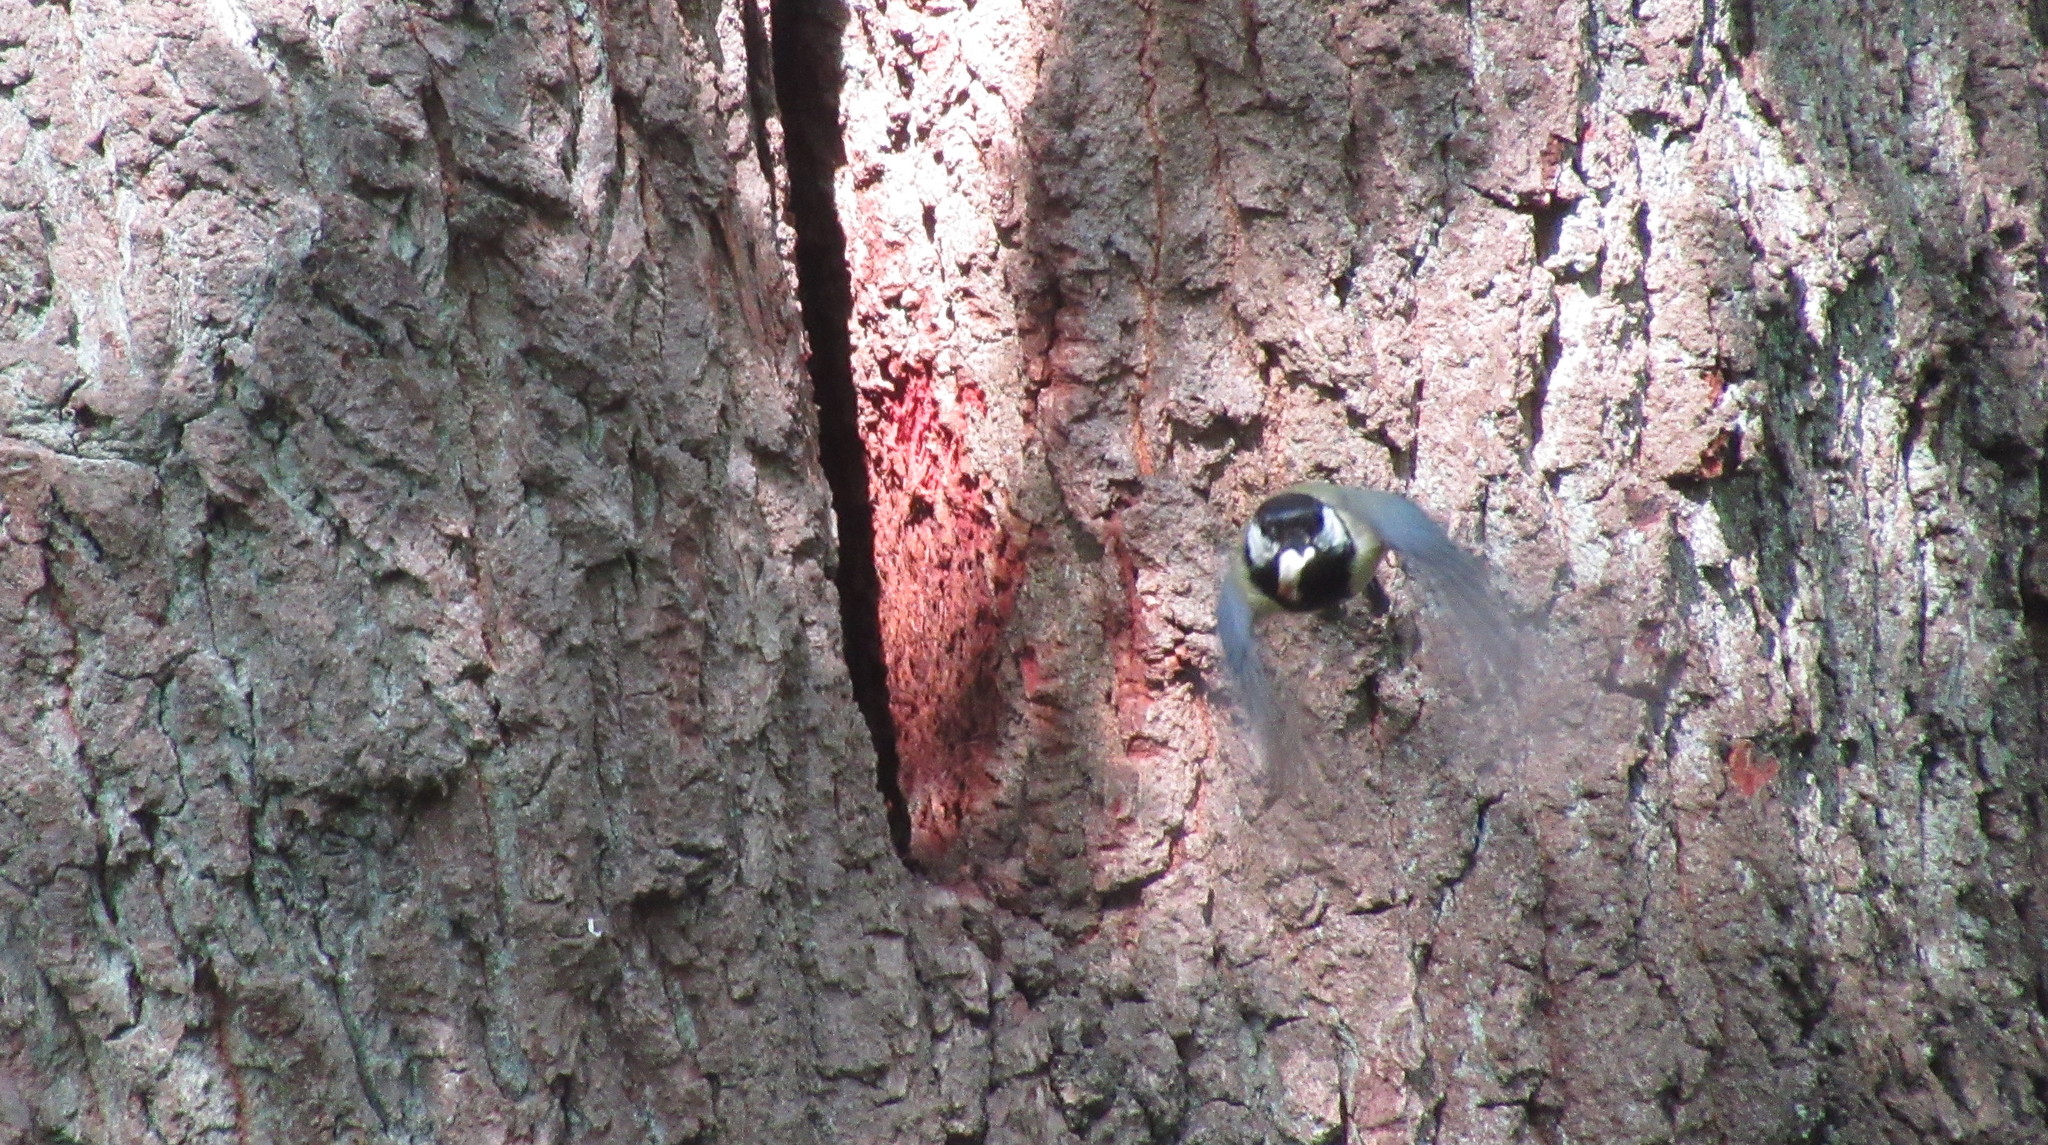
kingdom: Animalia
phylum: Chordata
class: Aves
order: Passeriformes
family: Paridae
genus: Parus
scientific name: Parus major
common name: Great tit
